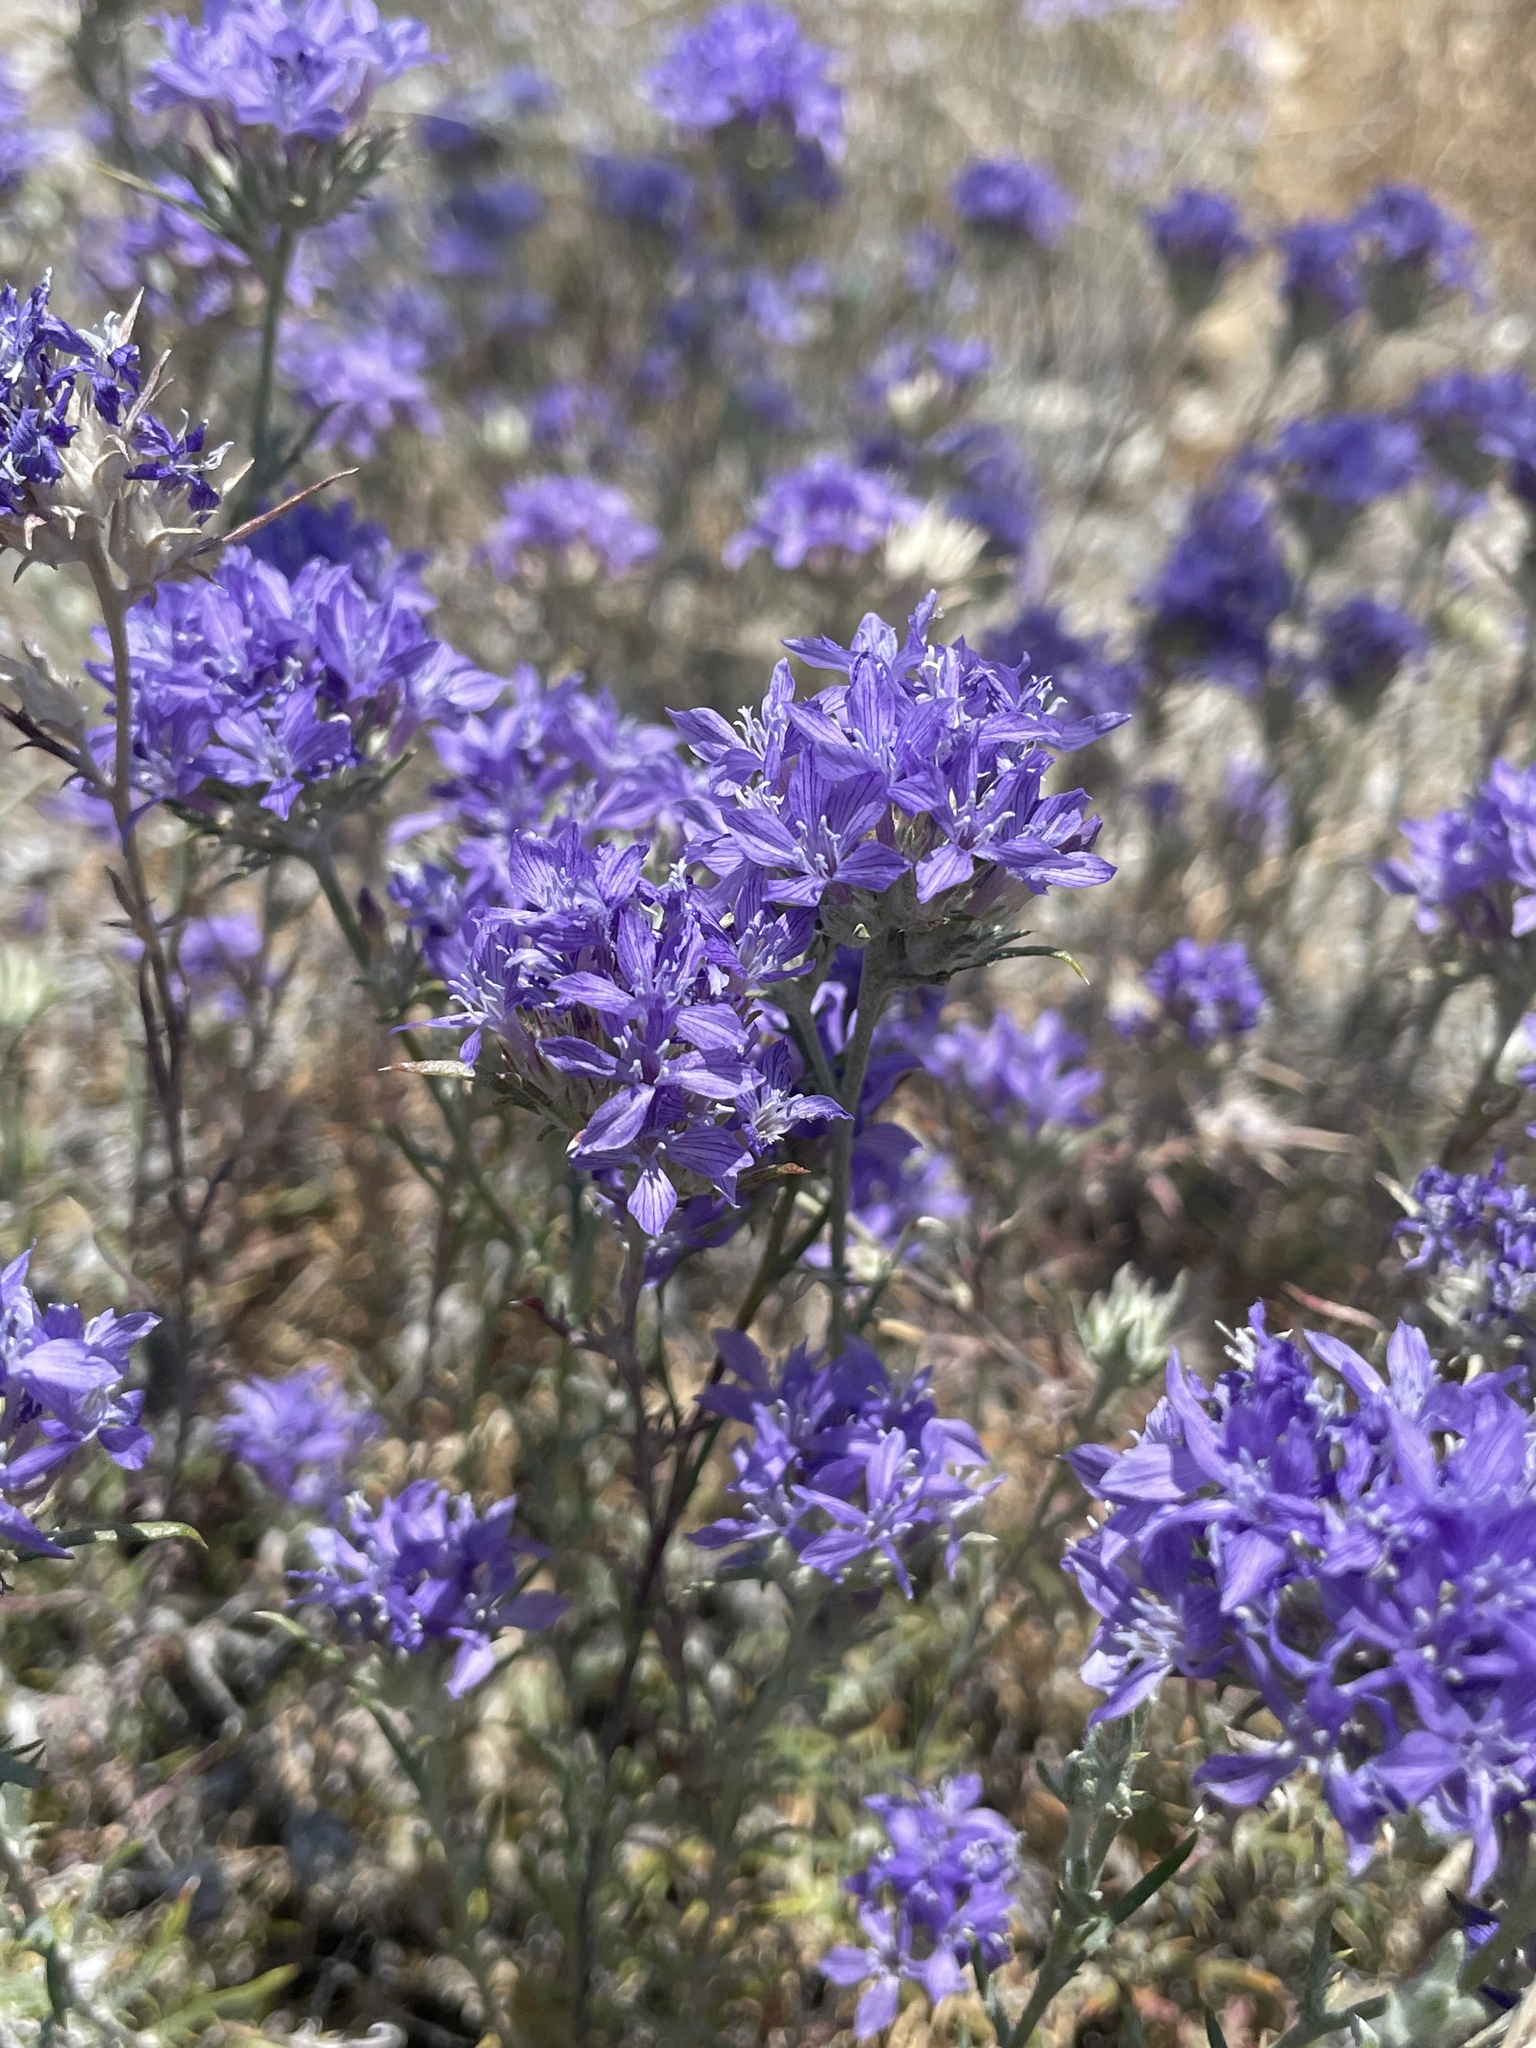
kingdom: Plantae
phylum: Tracheophyta
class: Magnoliopsida
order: Ericales
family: Polemoniaceae
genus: Eriastrum
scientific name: Eriastrum densifolium
